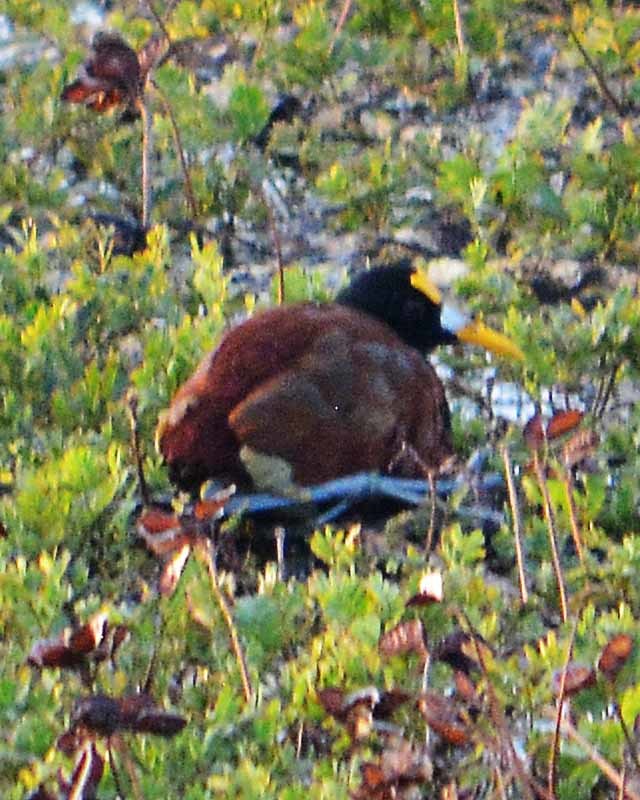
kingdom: Animalia
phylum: Chordata
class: Aves
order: Charadriiformes
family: Jacanidae
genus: Jacana
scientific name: Jacana spinosa
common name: Northern jacana
